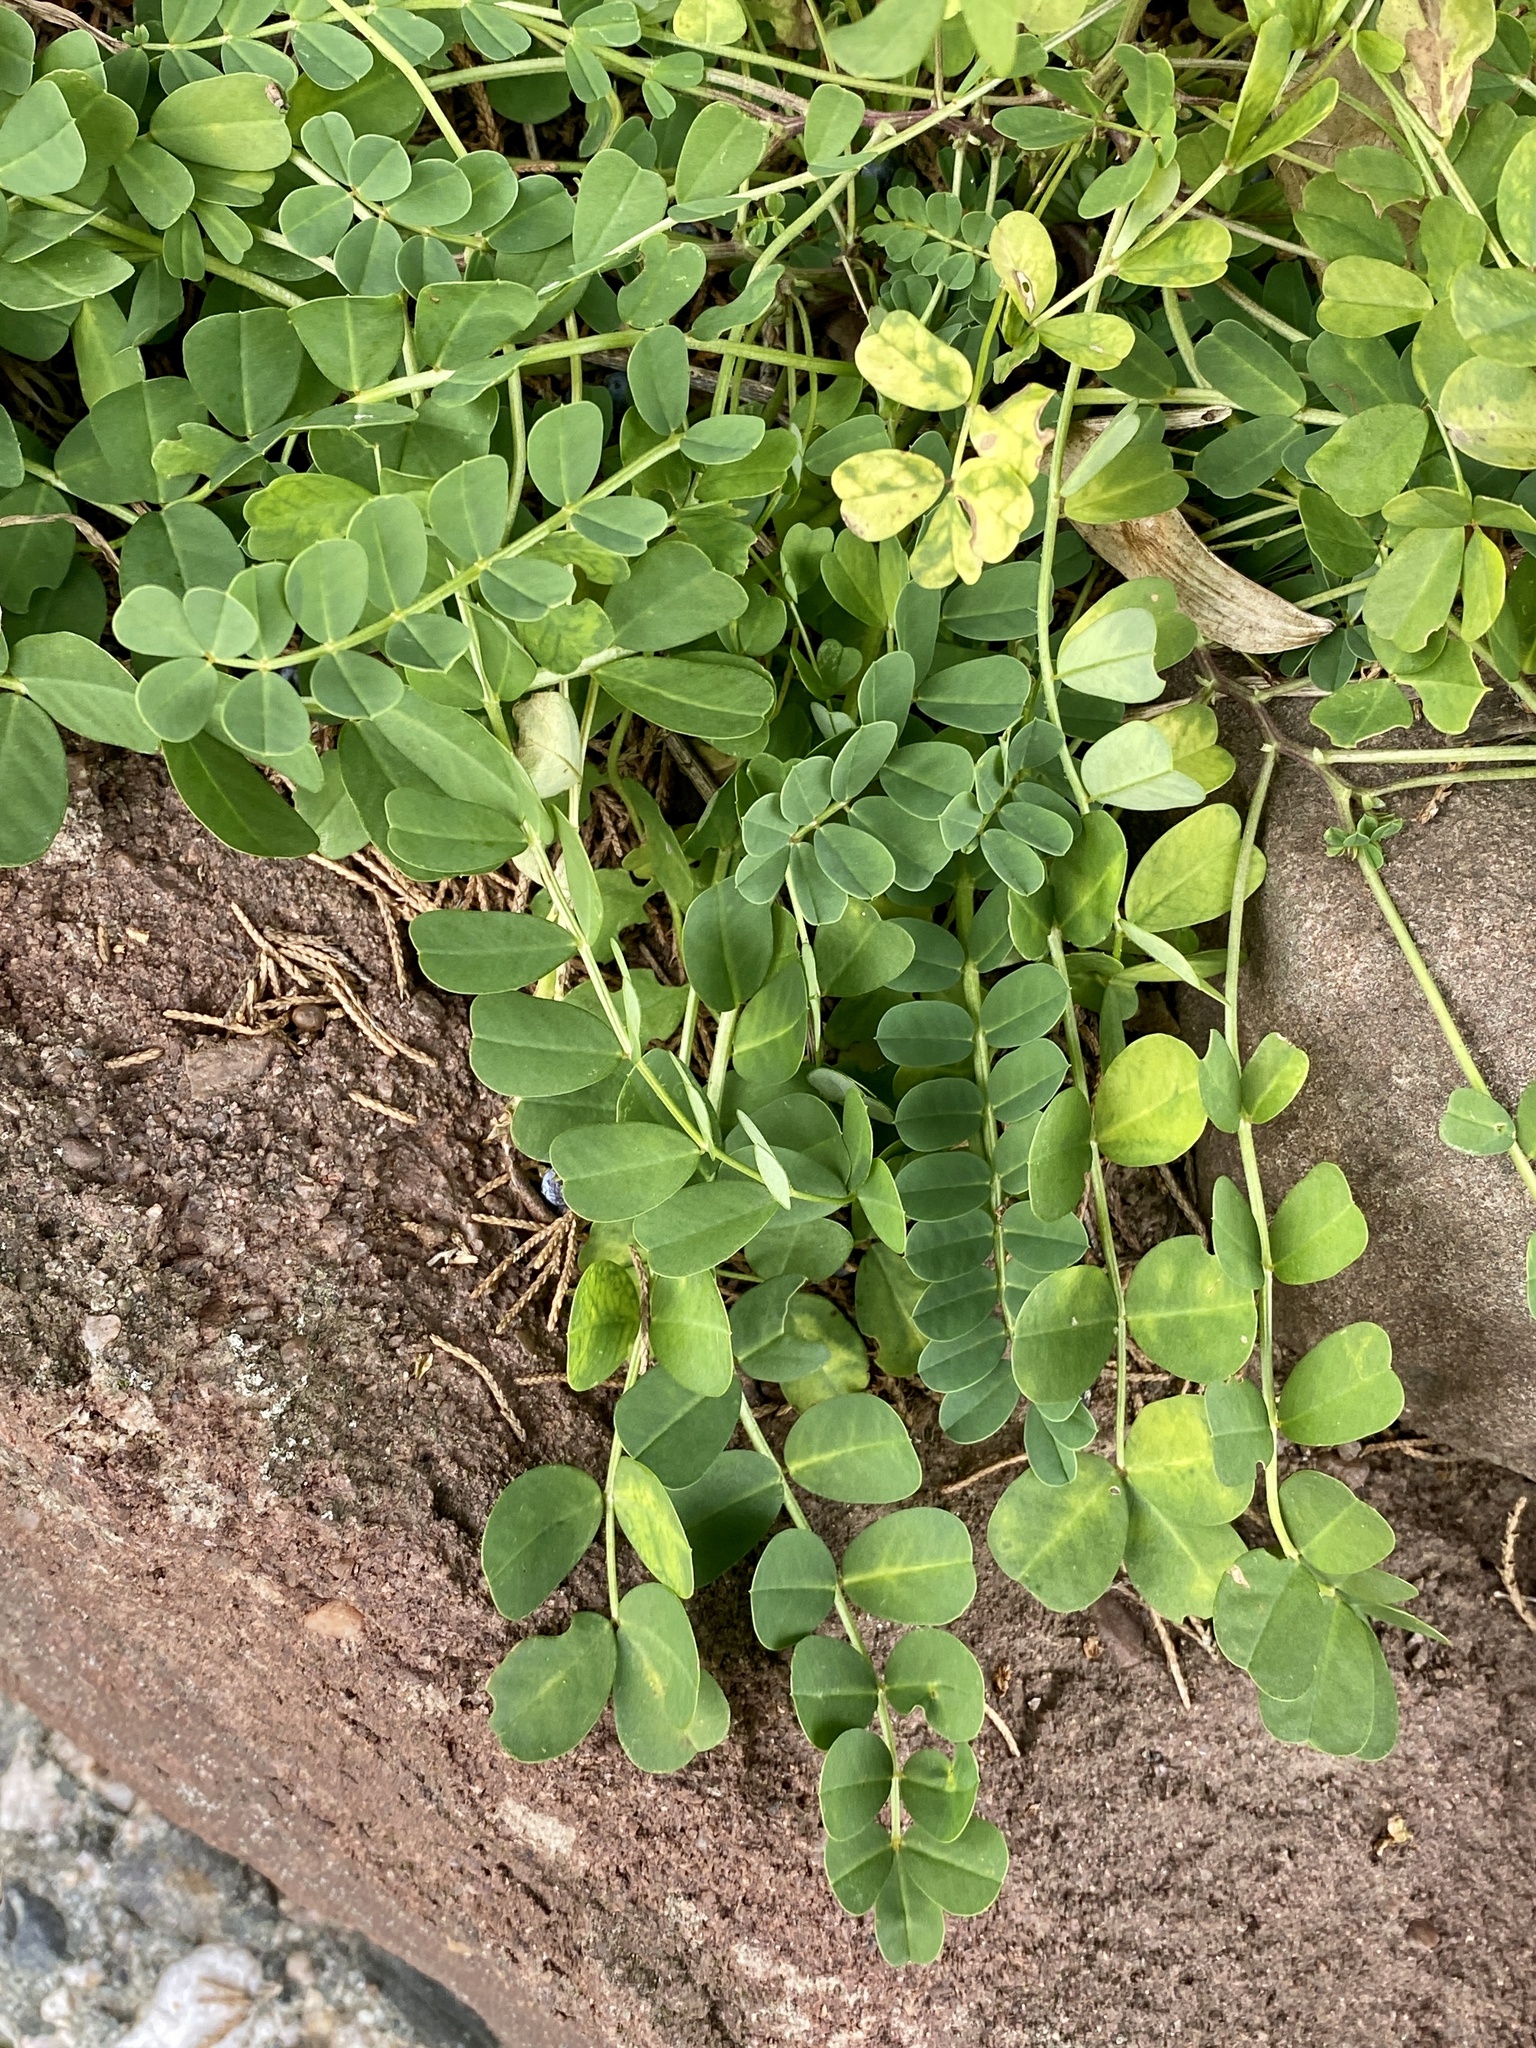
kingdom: Plantae
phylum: Tracheophyta
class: Magnoliopsida
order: Fabales
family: Fabaceae
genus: Coronilla
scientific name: Coronilla varia
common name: Crownvetch
